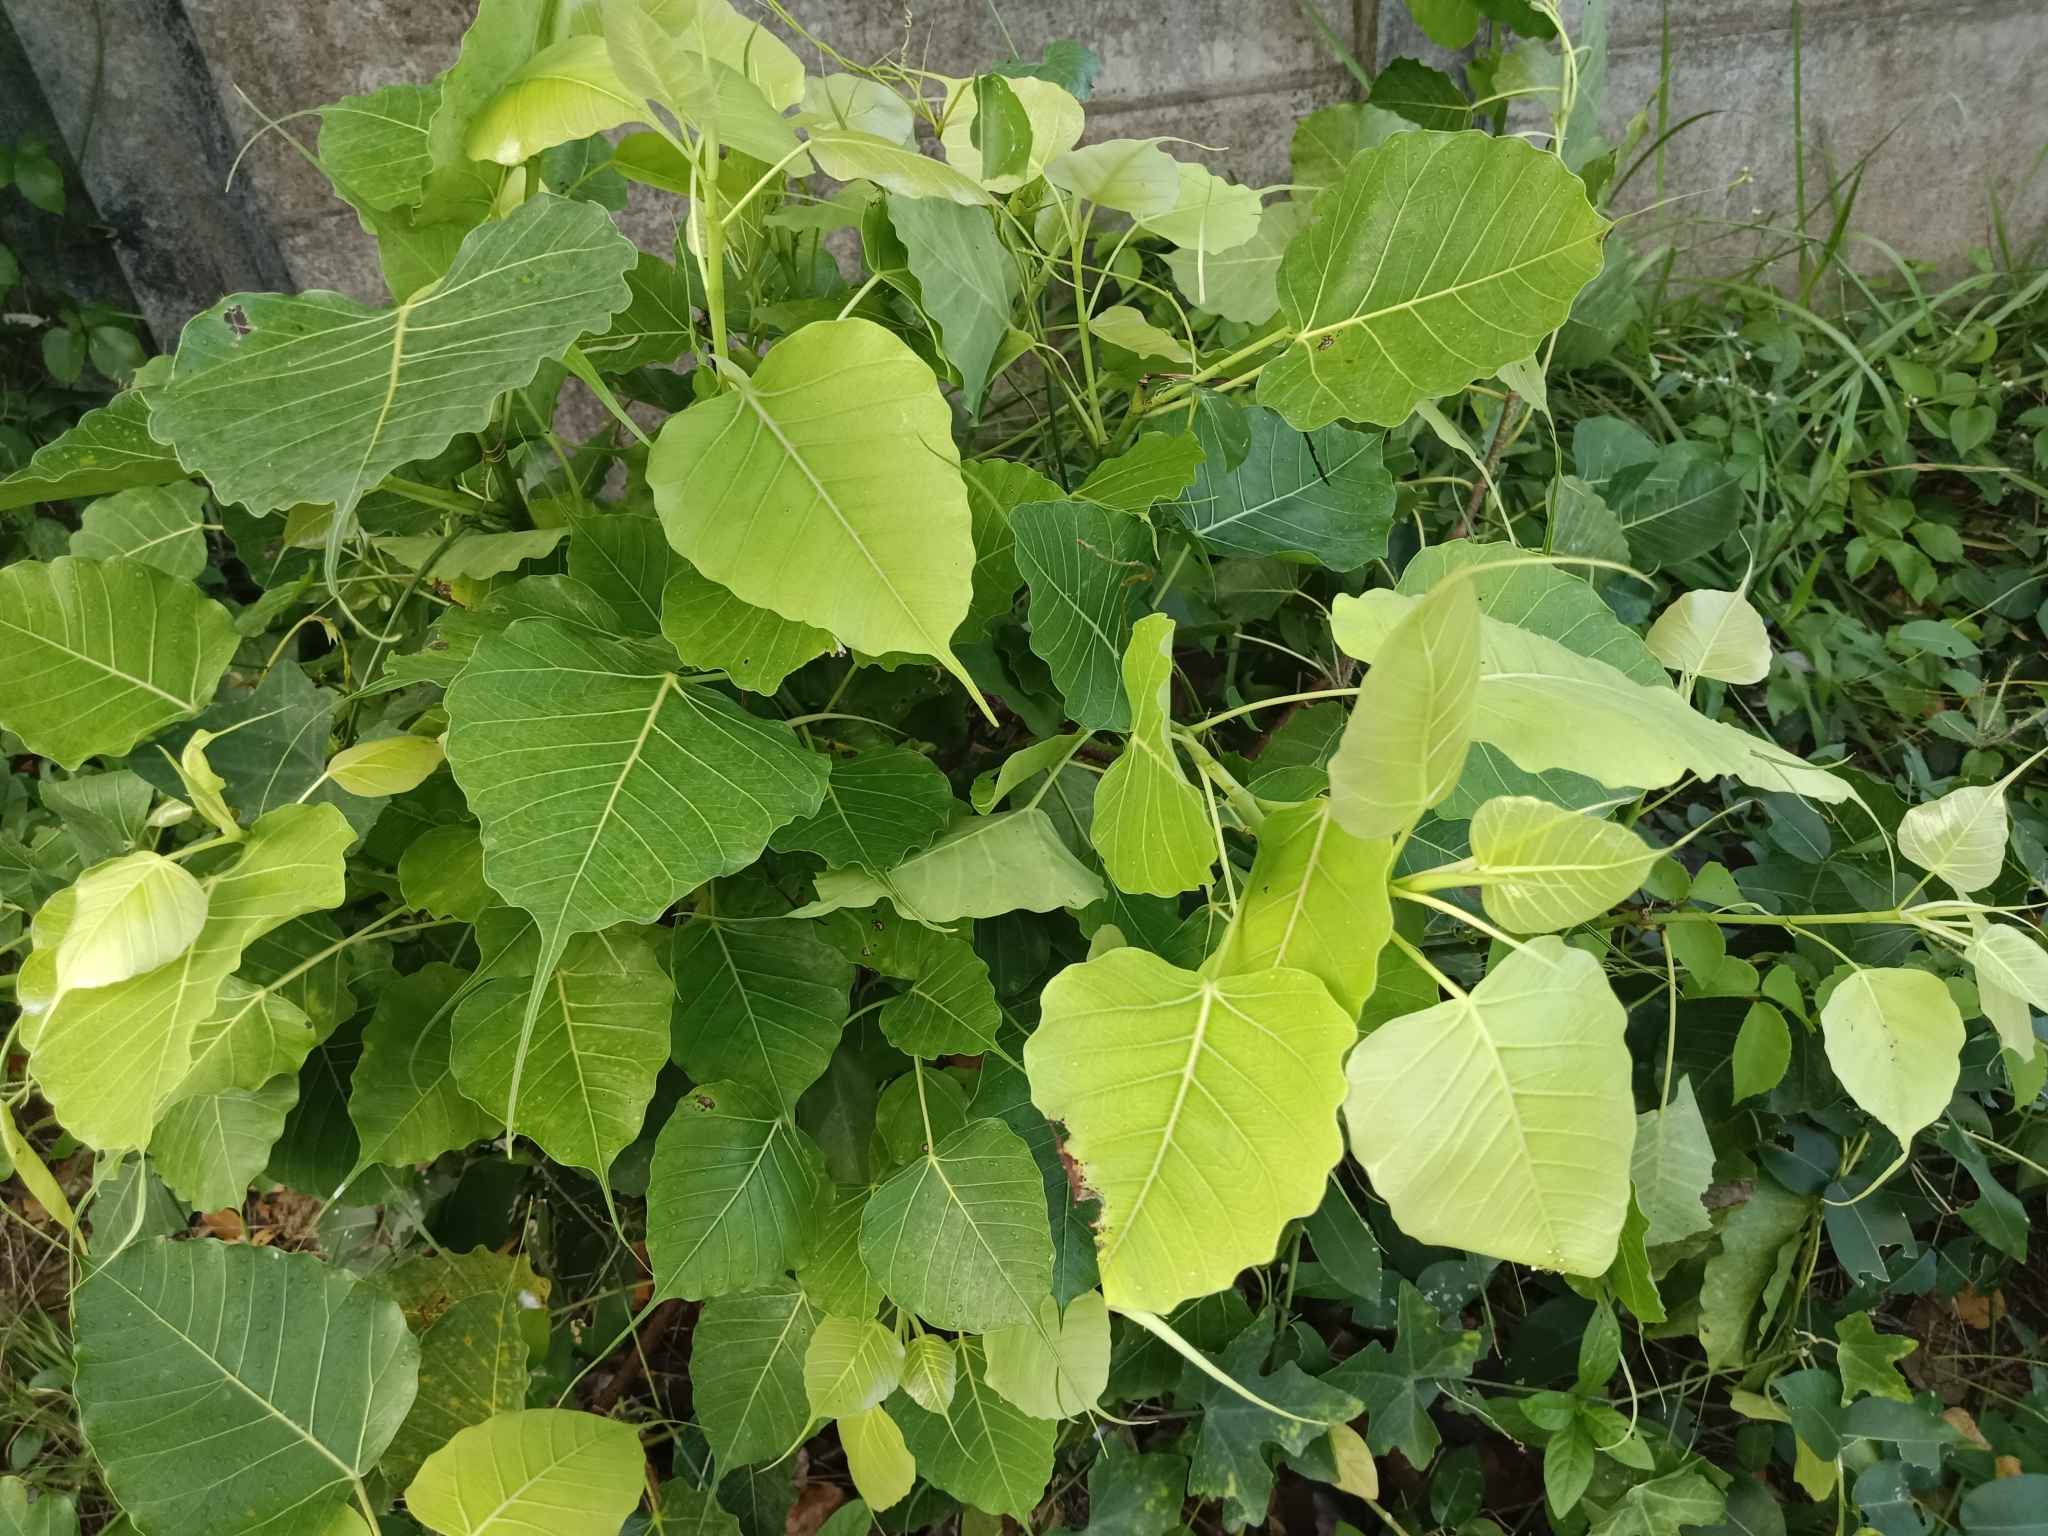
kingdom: Plantae
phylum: Tracheophyta
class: Magnoliopsida
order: Rosales
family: Moraceae
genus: Ficus
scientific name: Ficus religiosa
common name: Bodhi tree
